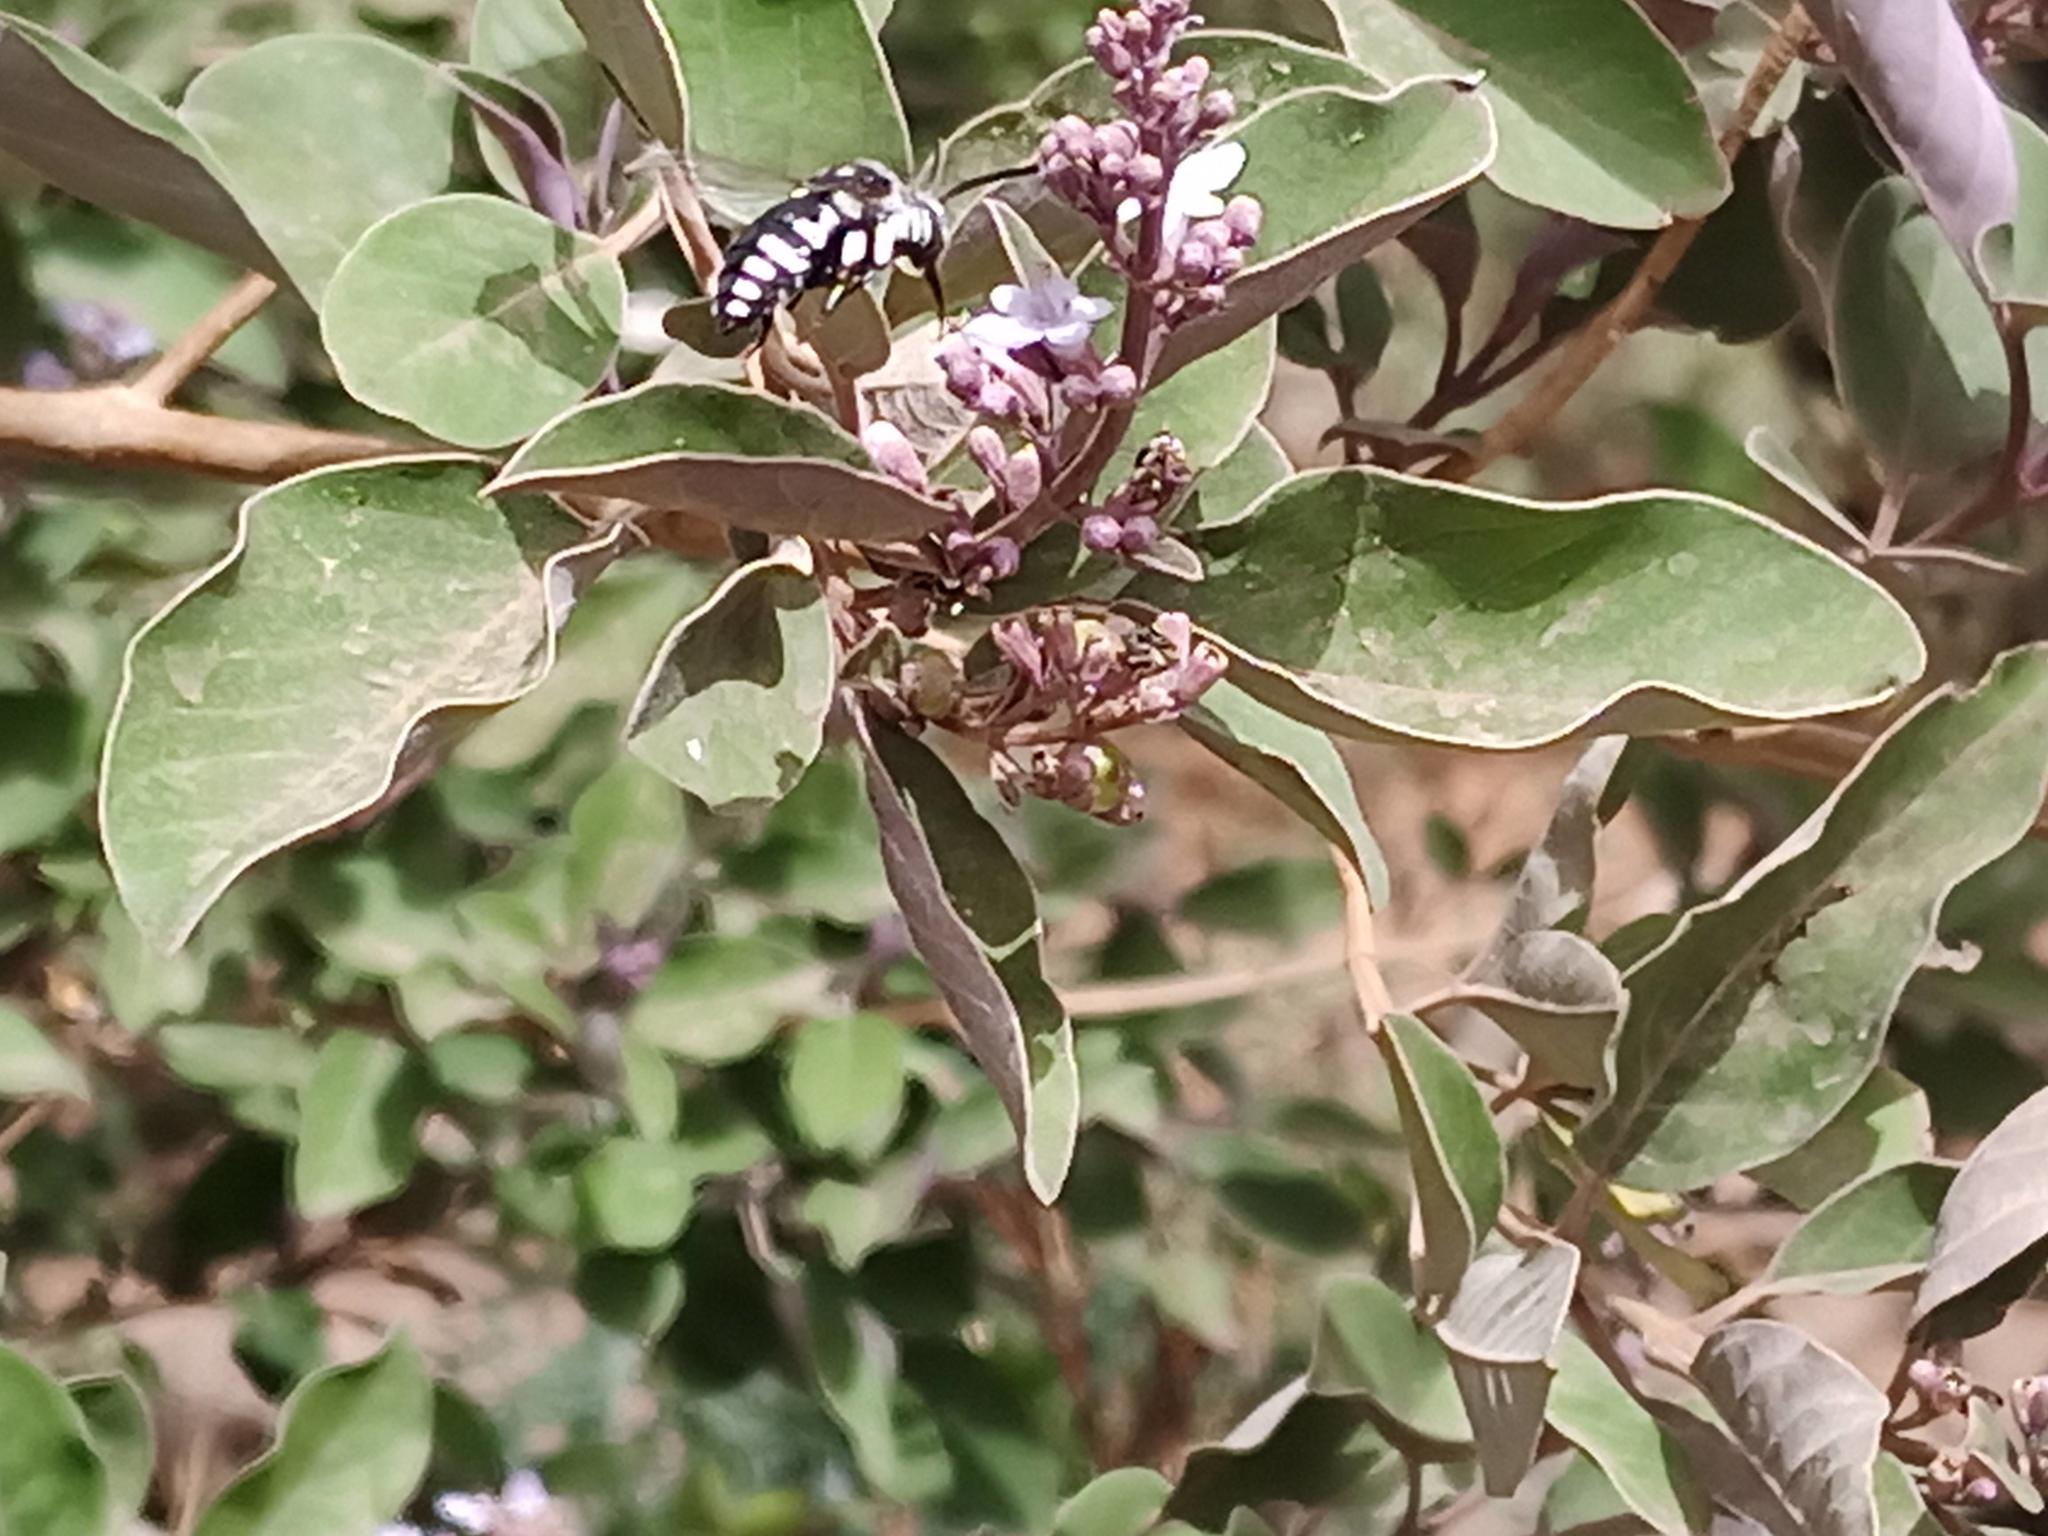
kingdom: Animalia
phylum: Arthropoda
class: Insecta
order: Hymenoptera
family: Apidae
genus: Thyreus
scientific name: Thyreus histrionicus
